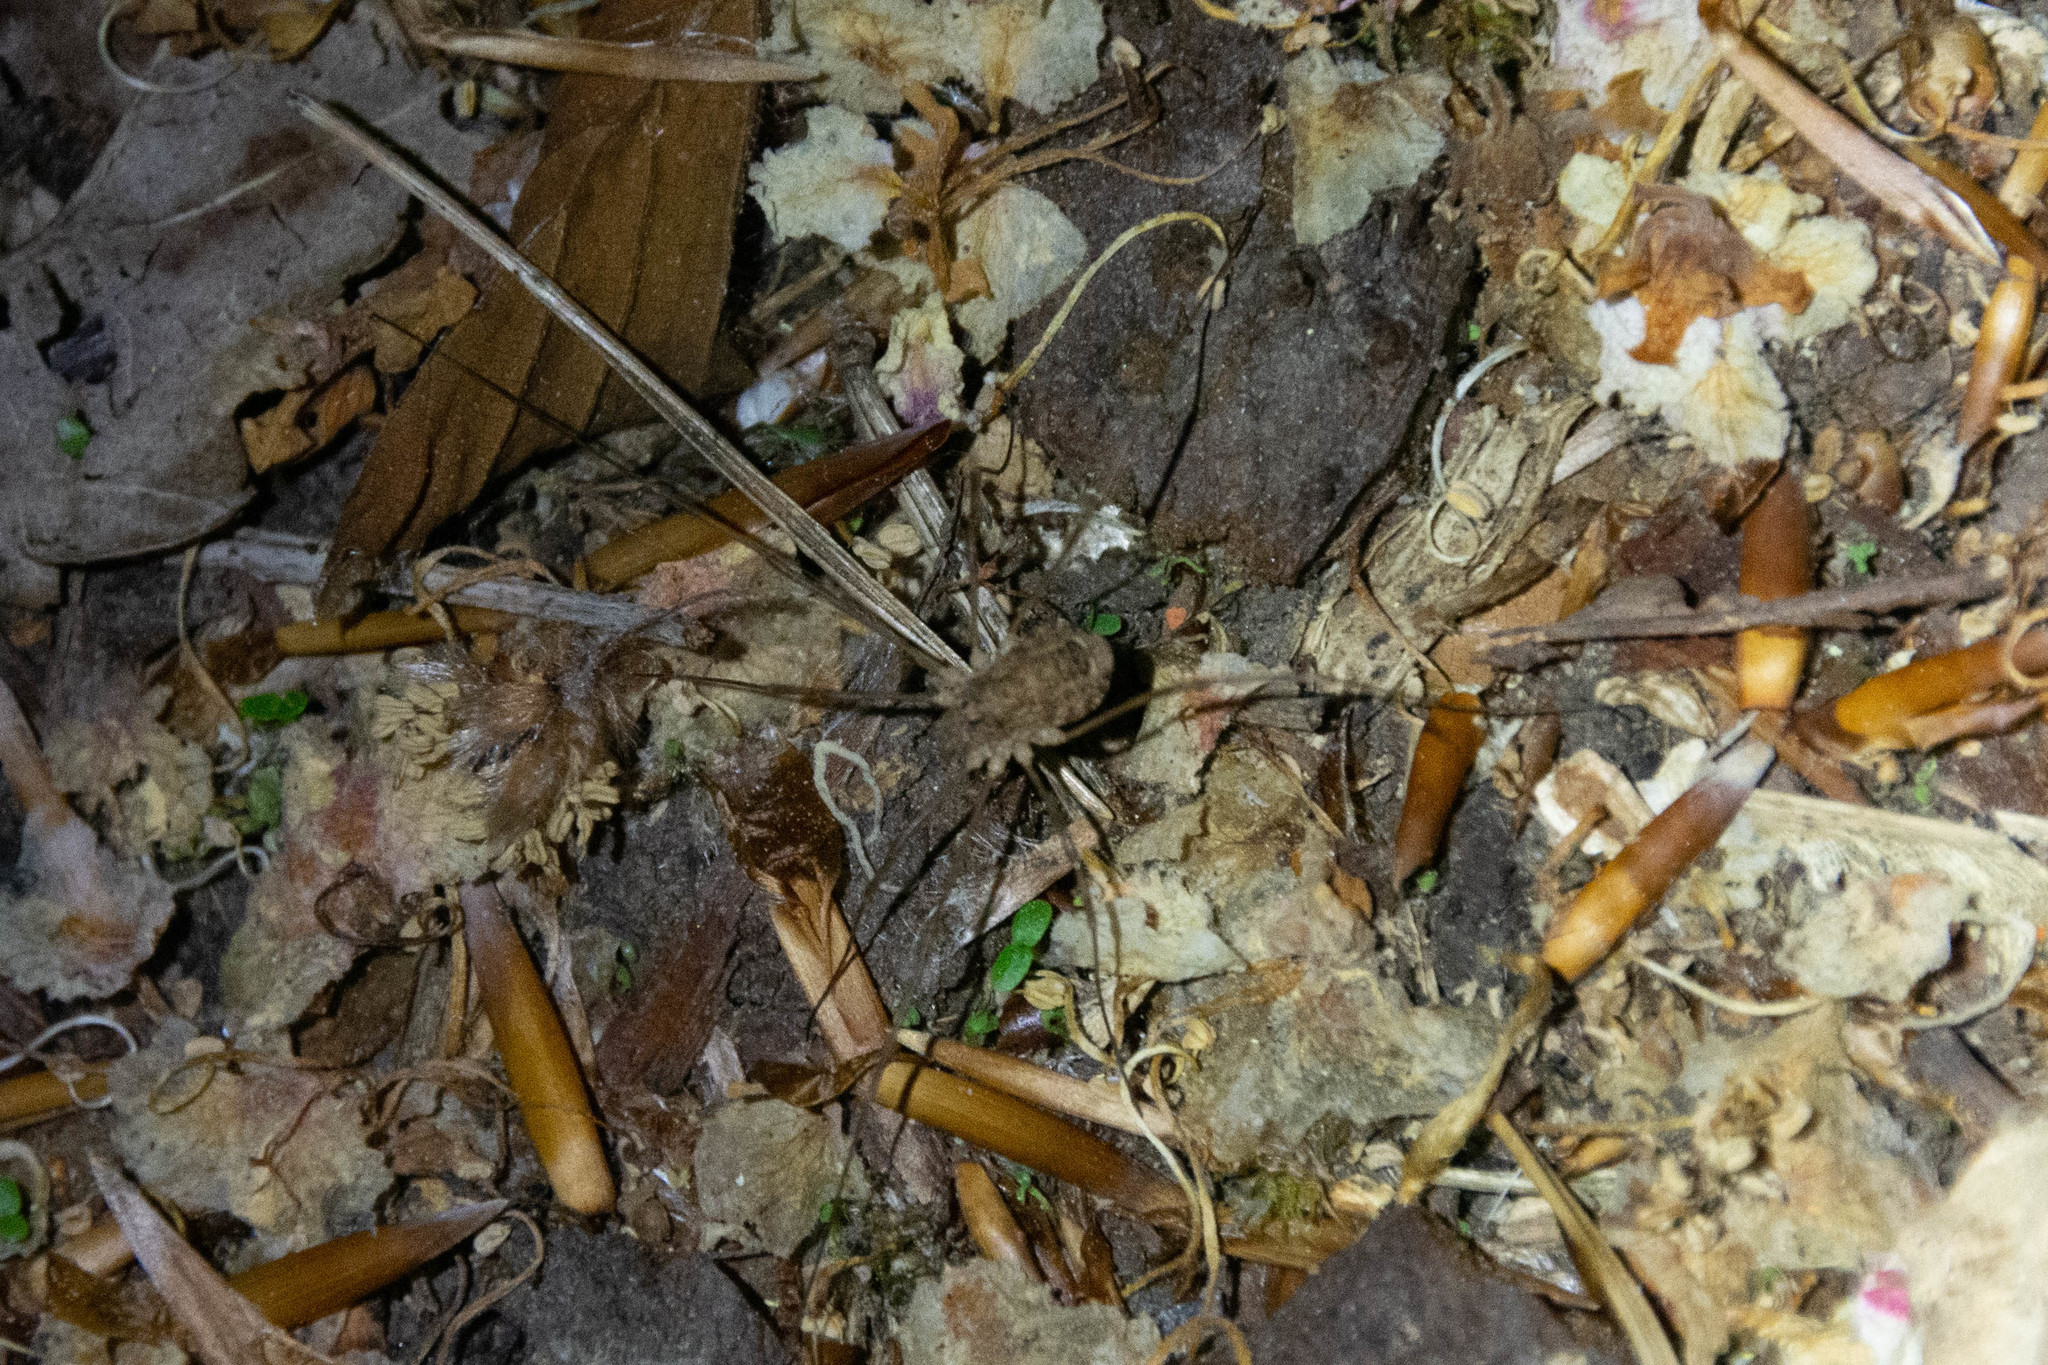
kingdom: Animalia
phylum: Arthropoda
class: Arachnida
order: Opiliones
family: Phalangiidae
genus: Rilaena
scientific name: Rilaena triangularis
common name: Spring harvestman
